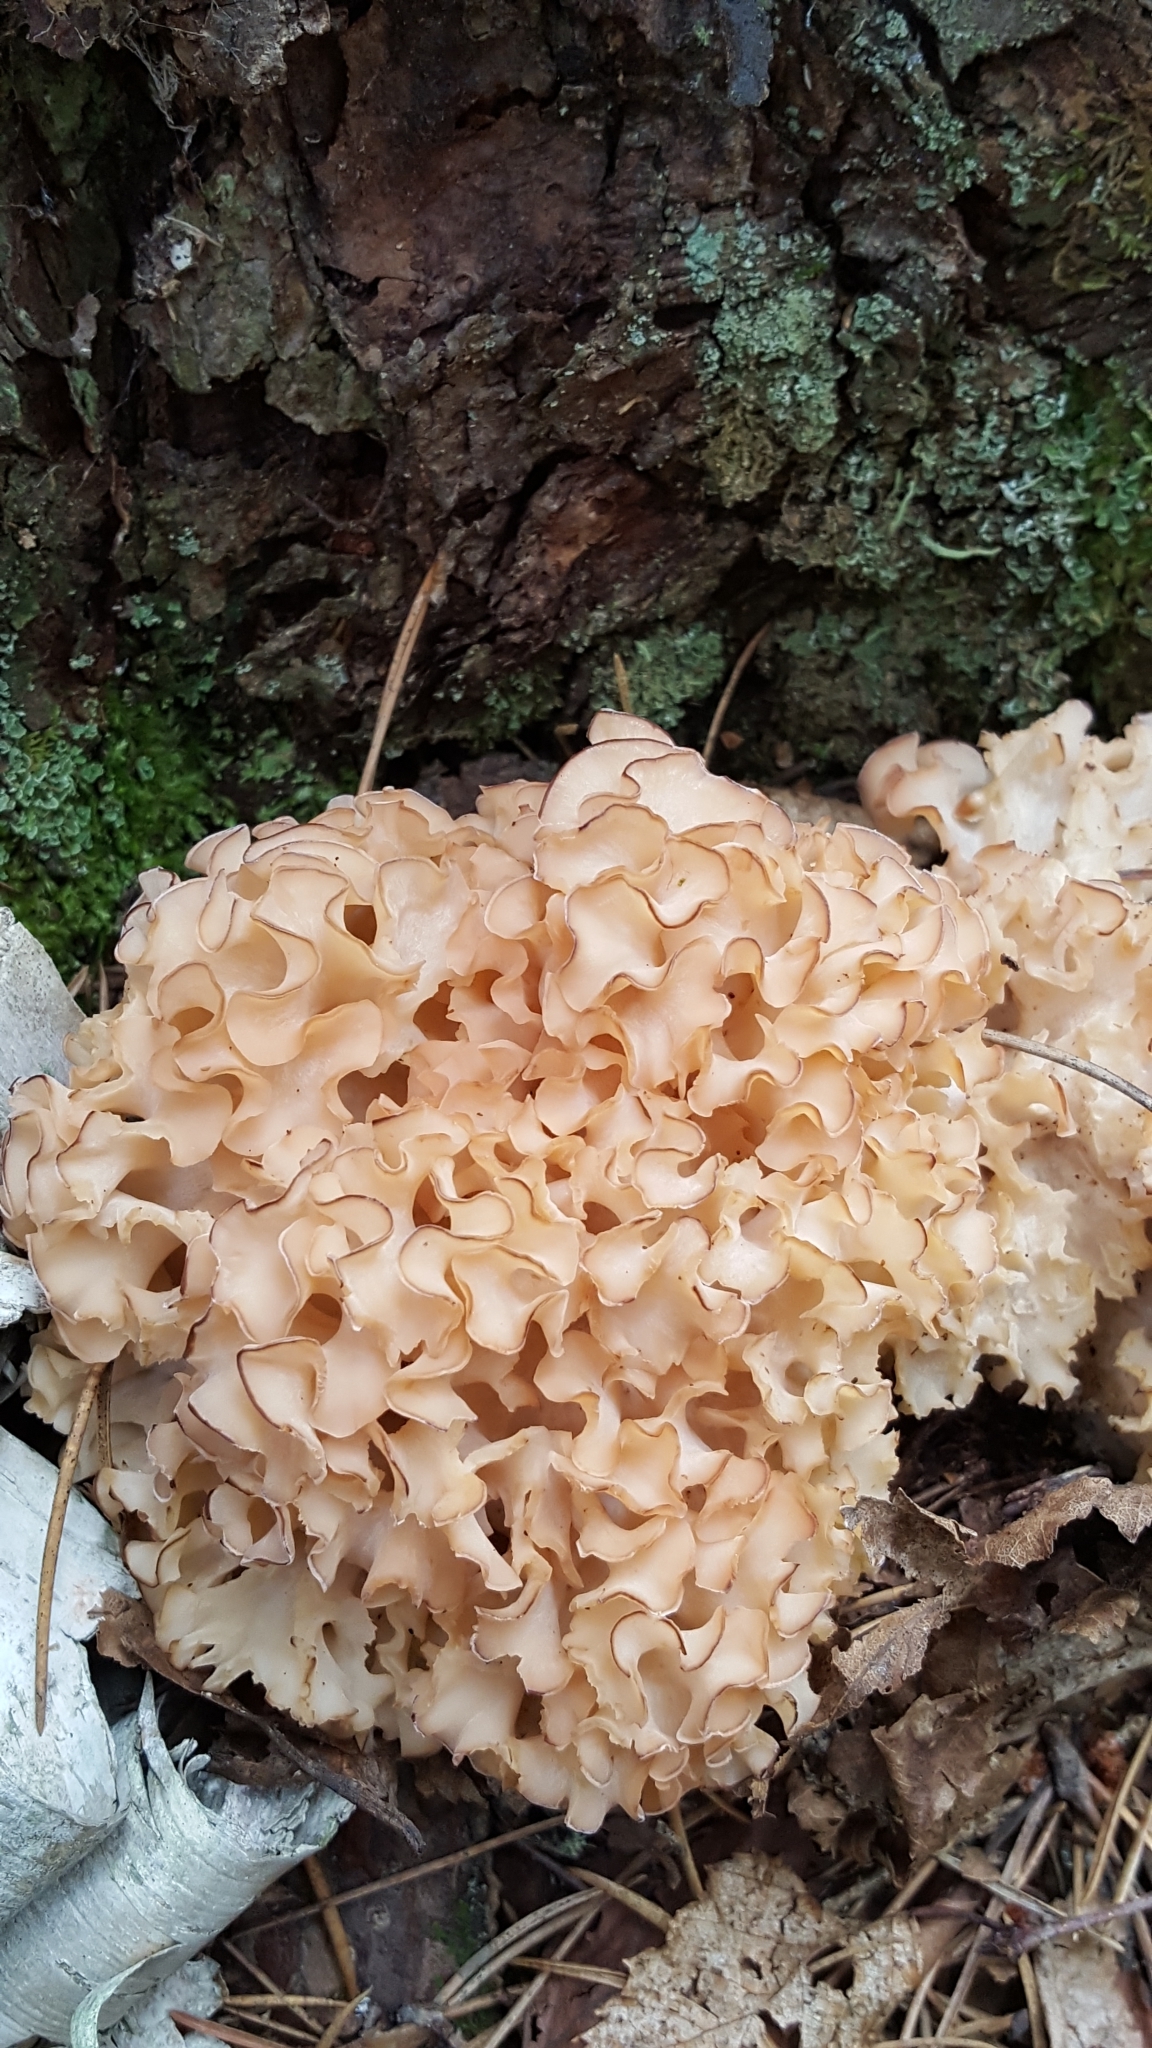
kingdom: Fungi
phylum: Basidiomycota
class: Agaricomycetes
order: Polyporales
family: Sparassidaceae
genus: Sparassis
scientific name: Sparassis americana
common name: American cauliflower mushroom
